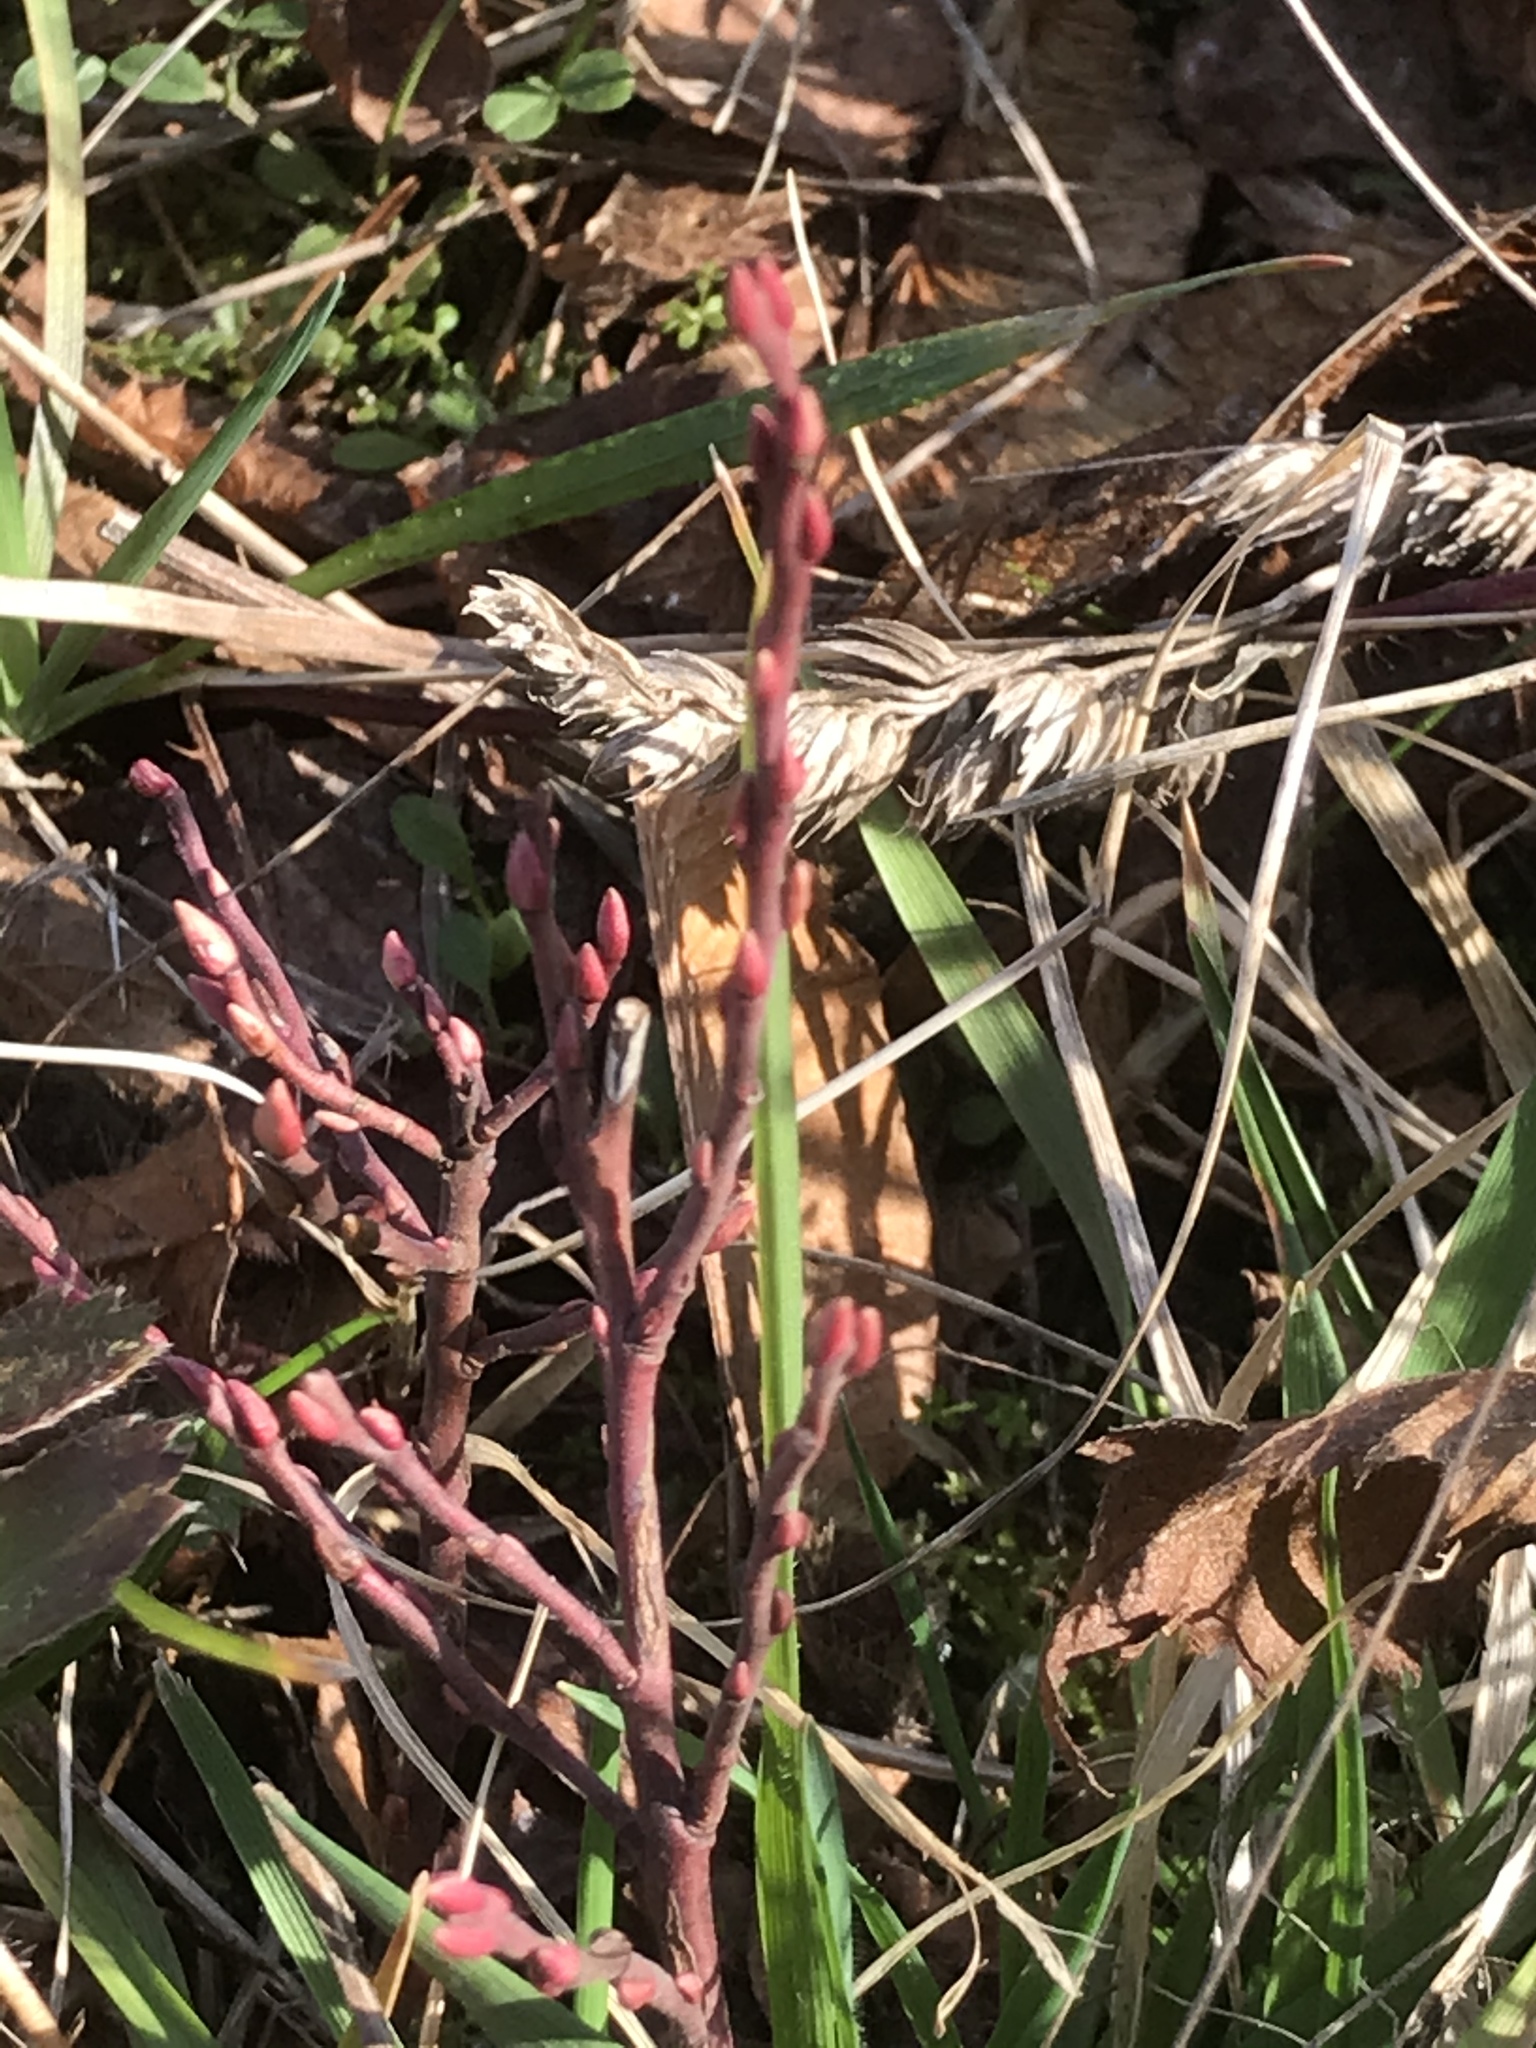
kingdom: Plantae
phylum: Tracheophyta
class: Magnoliopsida
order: Ericales
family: Ericaceae
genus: Vaccinium
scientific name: Vaccinium cespitosum
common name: Dwarf bilberry
